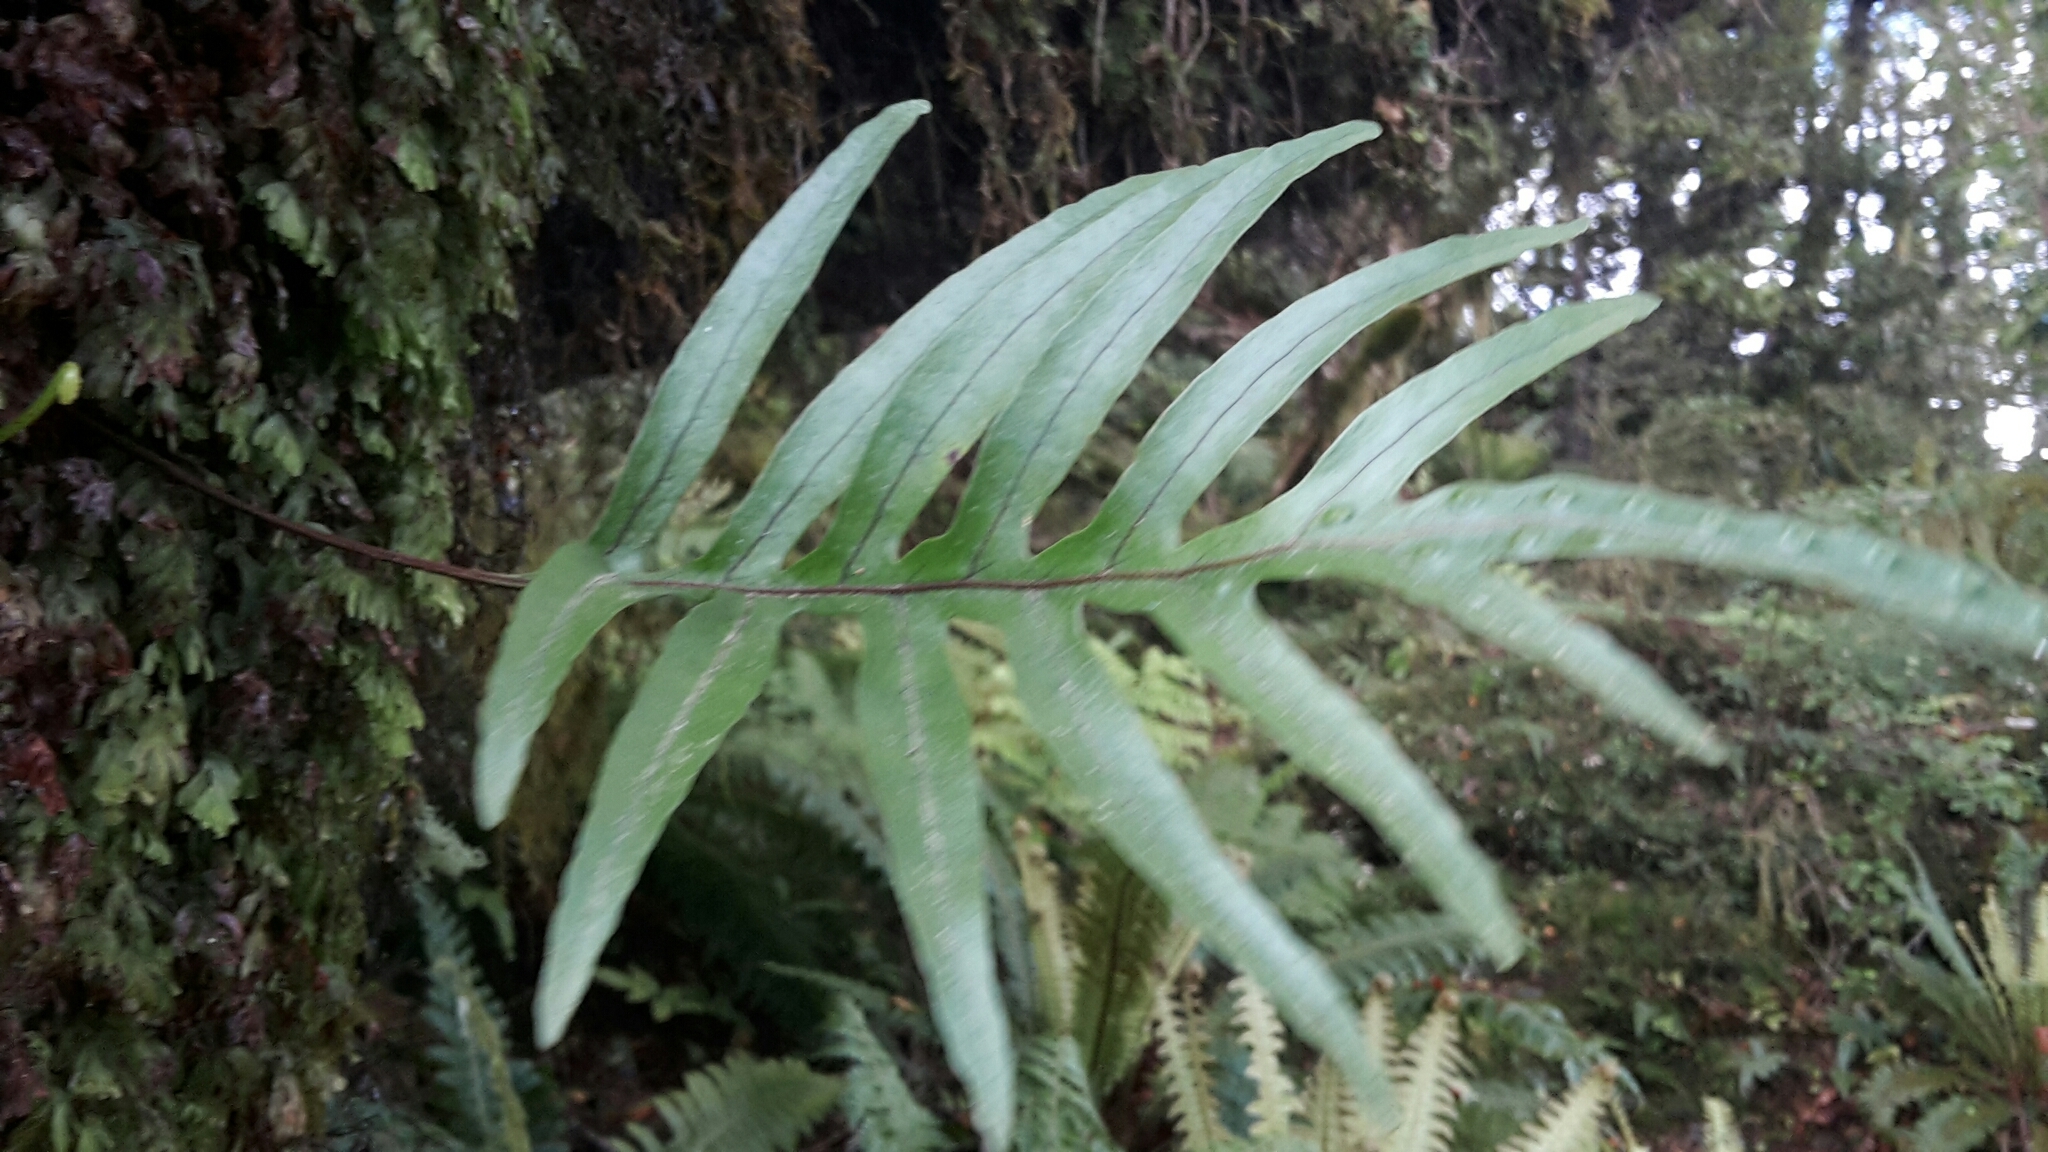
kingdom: Plantae
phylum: Tracheophyta
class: Polypodiopsida
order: Polypodiales
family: Polypodiaceae
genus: Lecanopteris
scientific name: Lecanopteris novae-zealandiae
